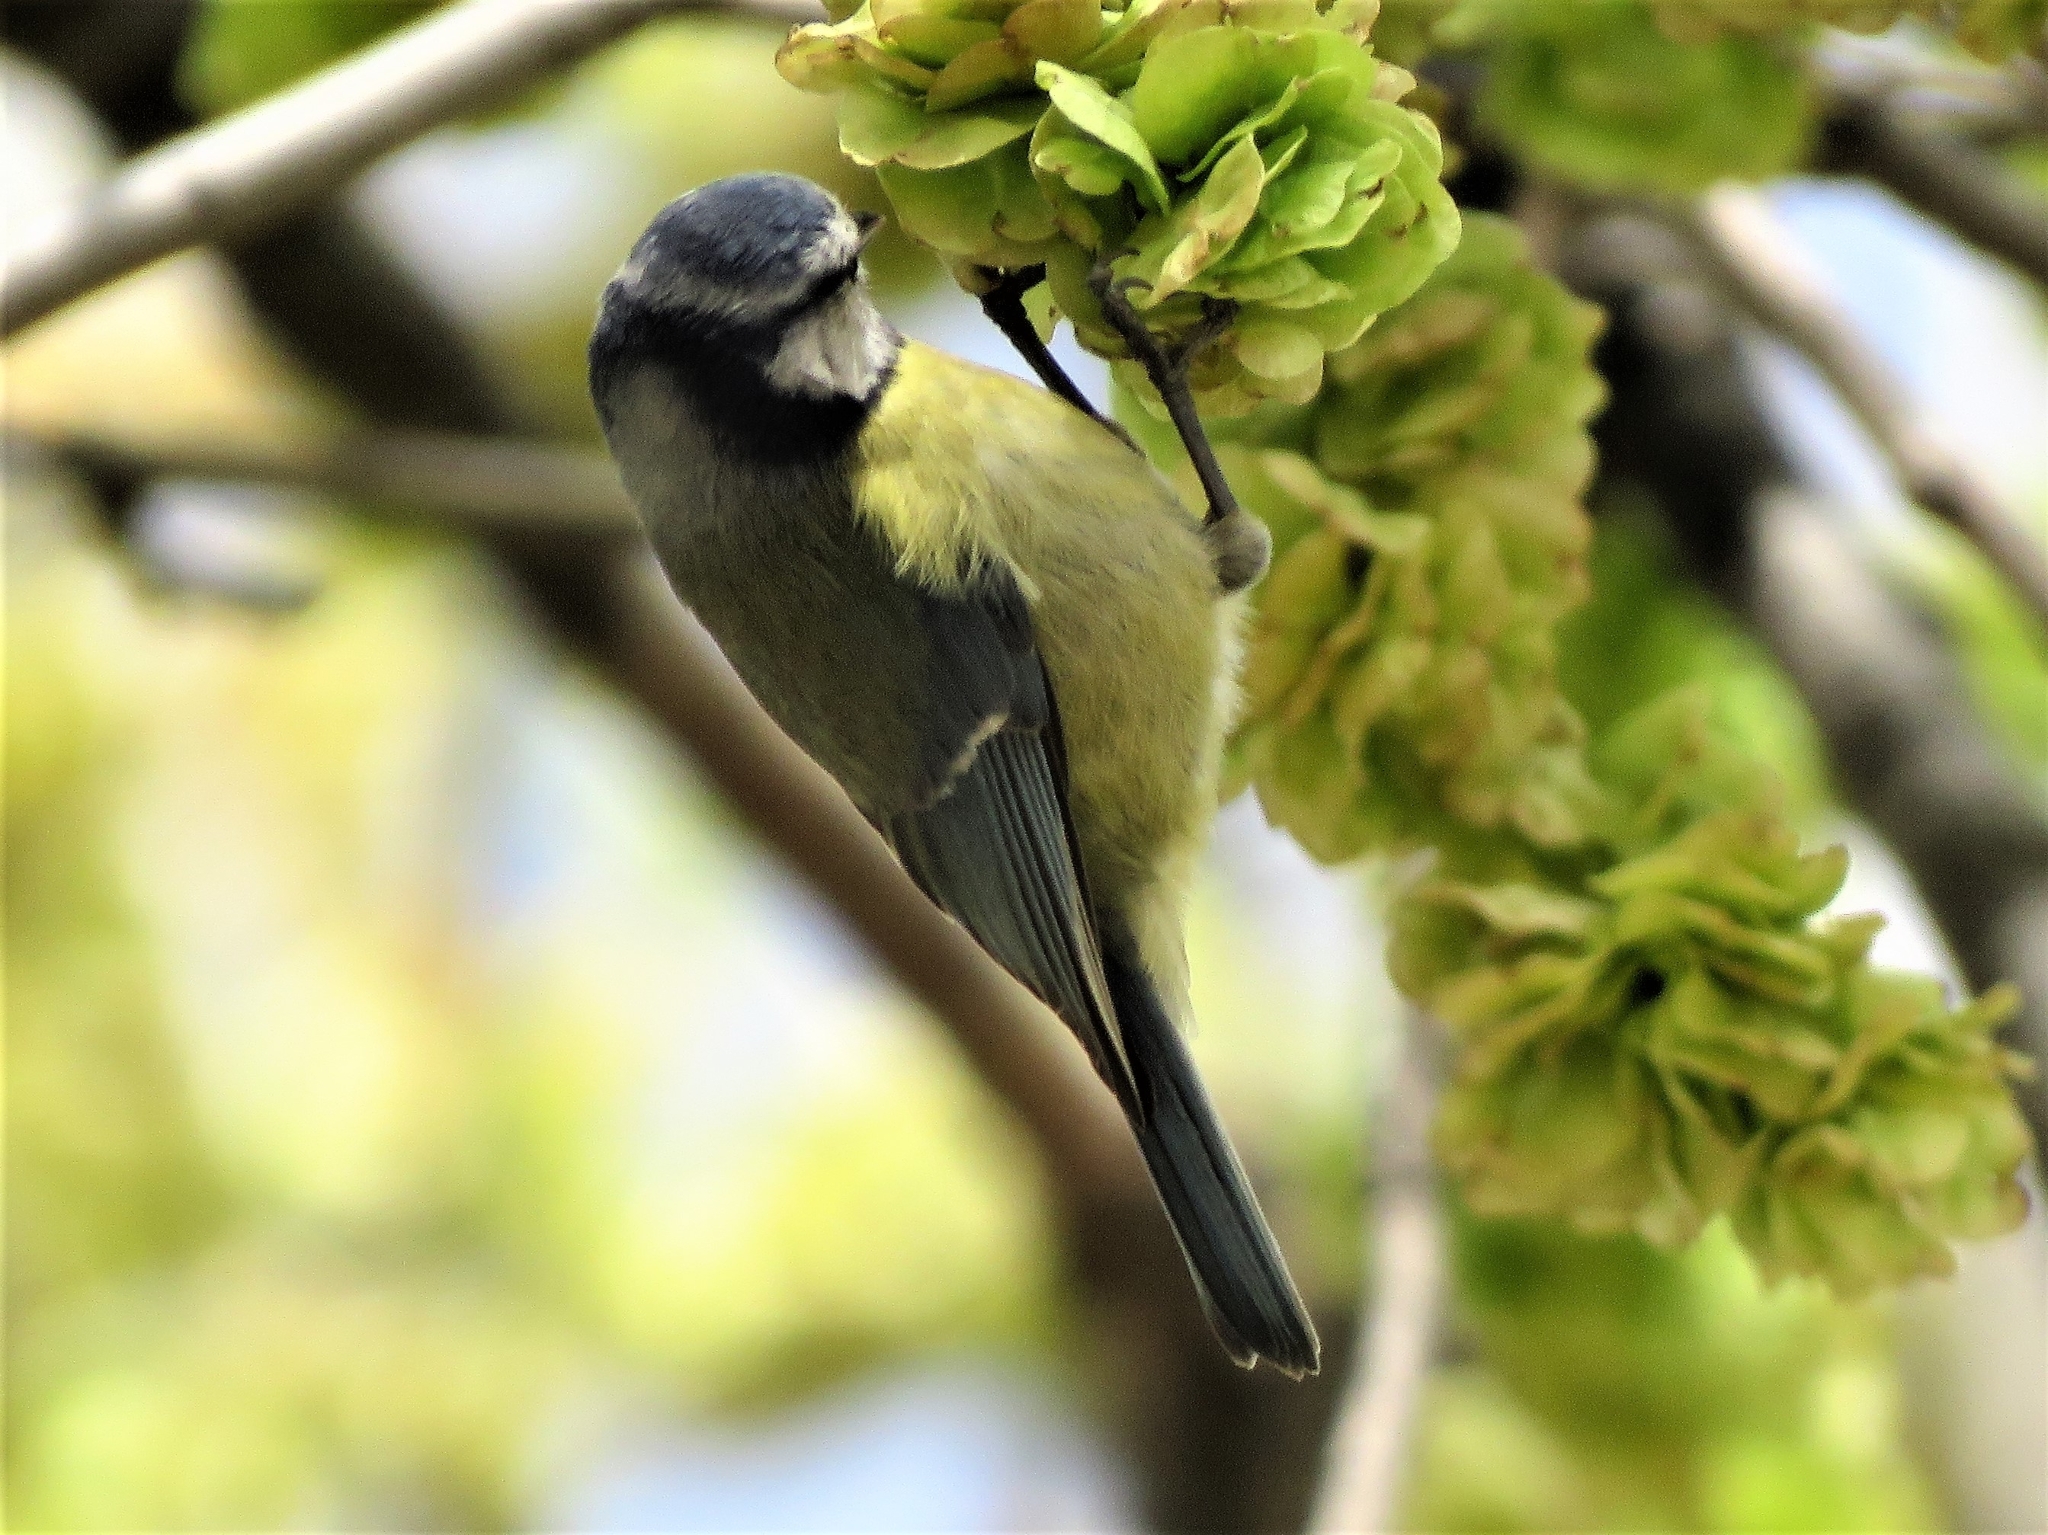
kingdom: Animalia
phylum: Chordata
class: Aves
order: Passeriformes
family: Paridae
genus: Cyanistes
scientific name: Cyanistes caeruleus
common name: Eurasian blue tit
